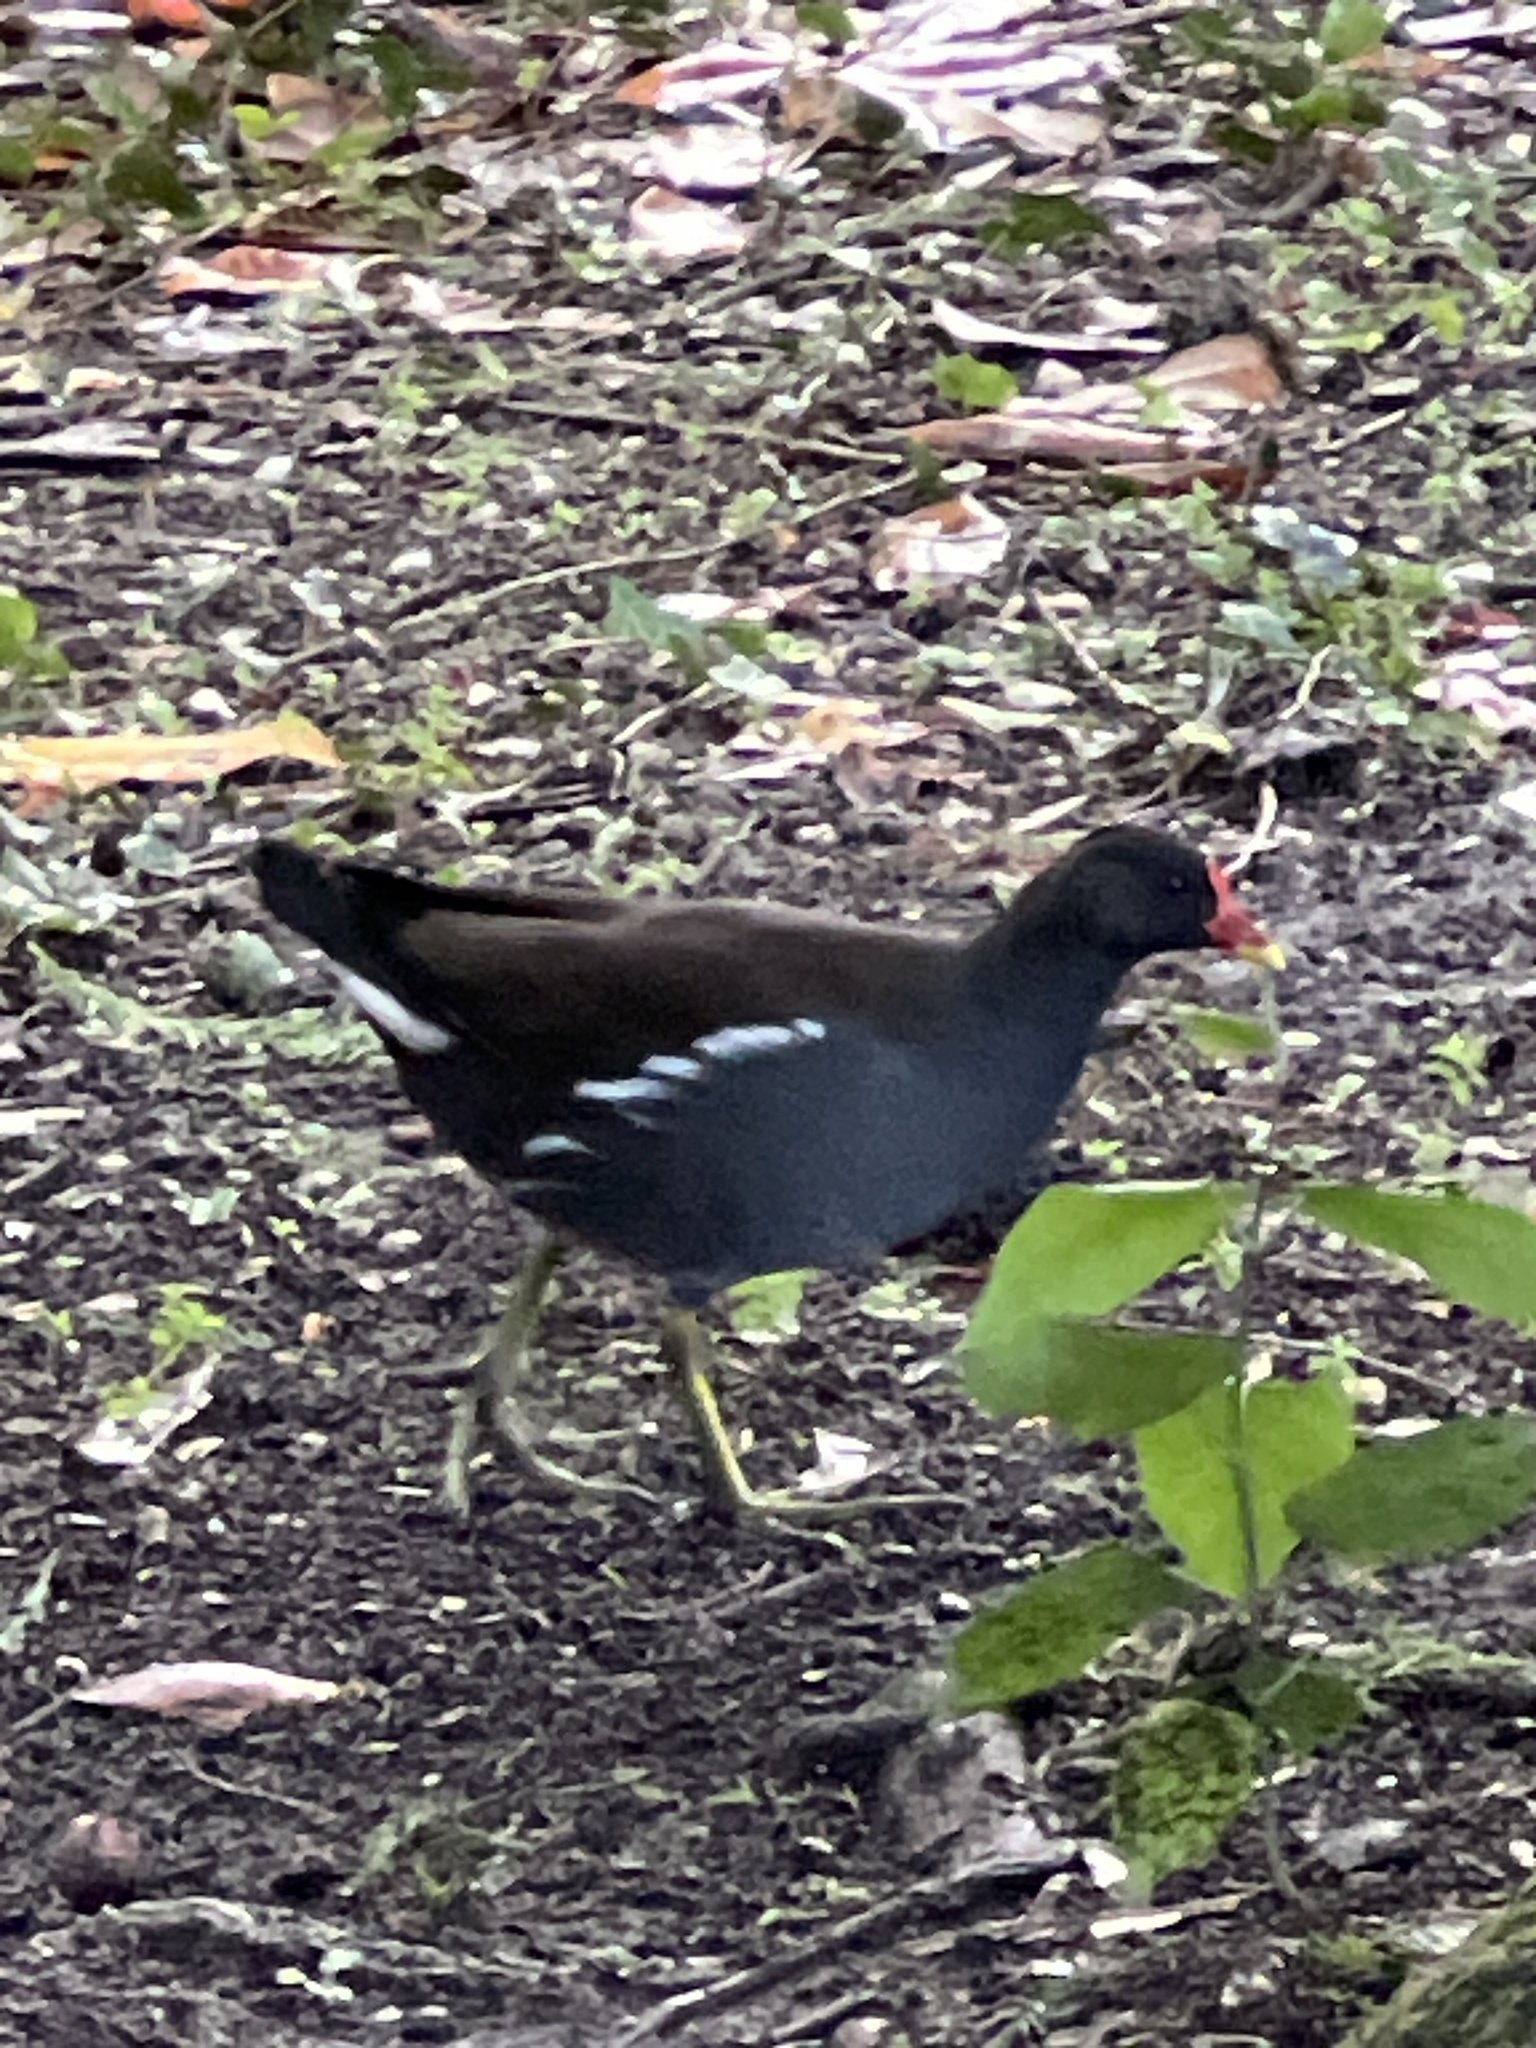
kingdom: Animalia
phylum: Chordata
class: Aves
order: Gruiformes
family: Rallidae
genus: Gallinula
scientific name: Gallinula chloropus
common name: Common moorhen
